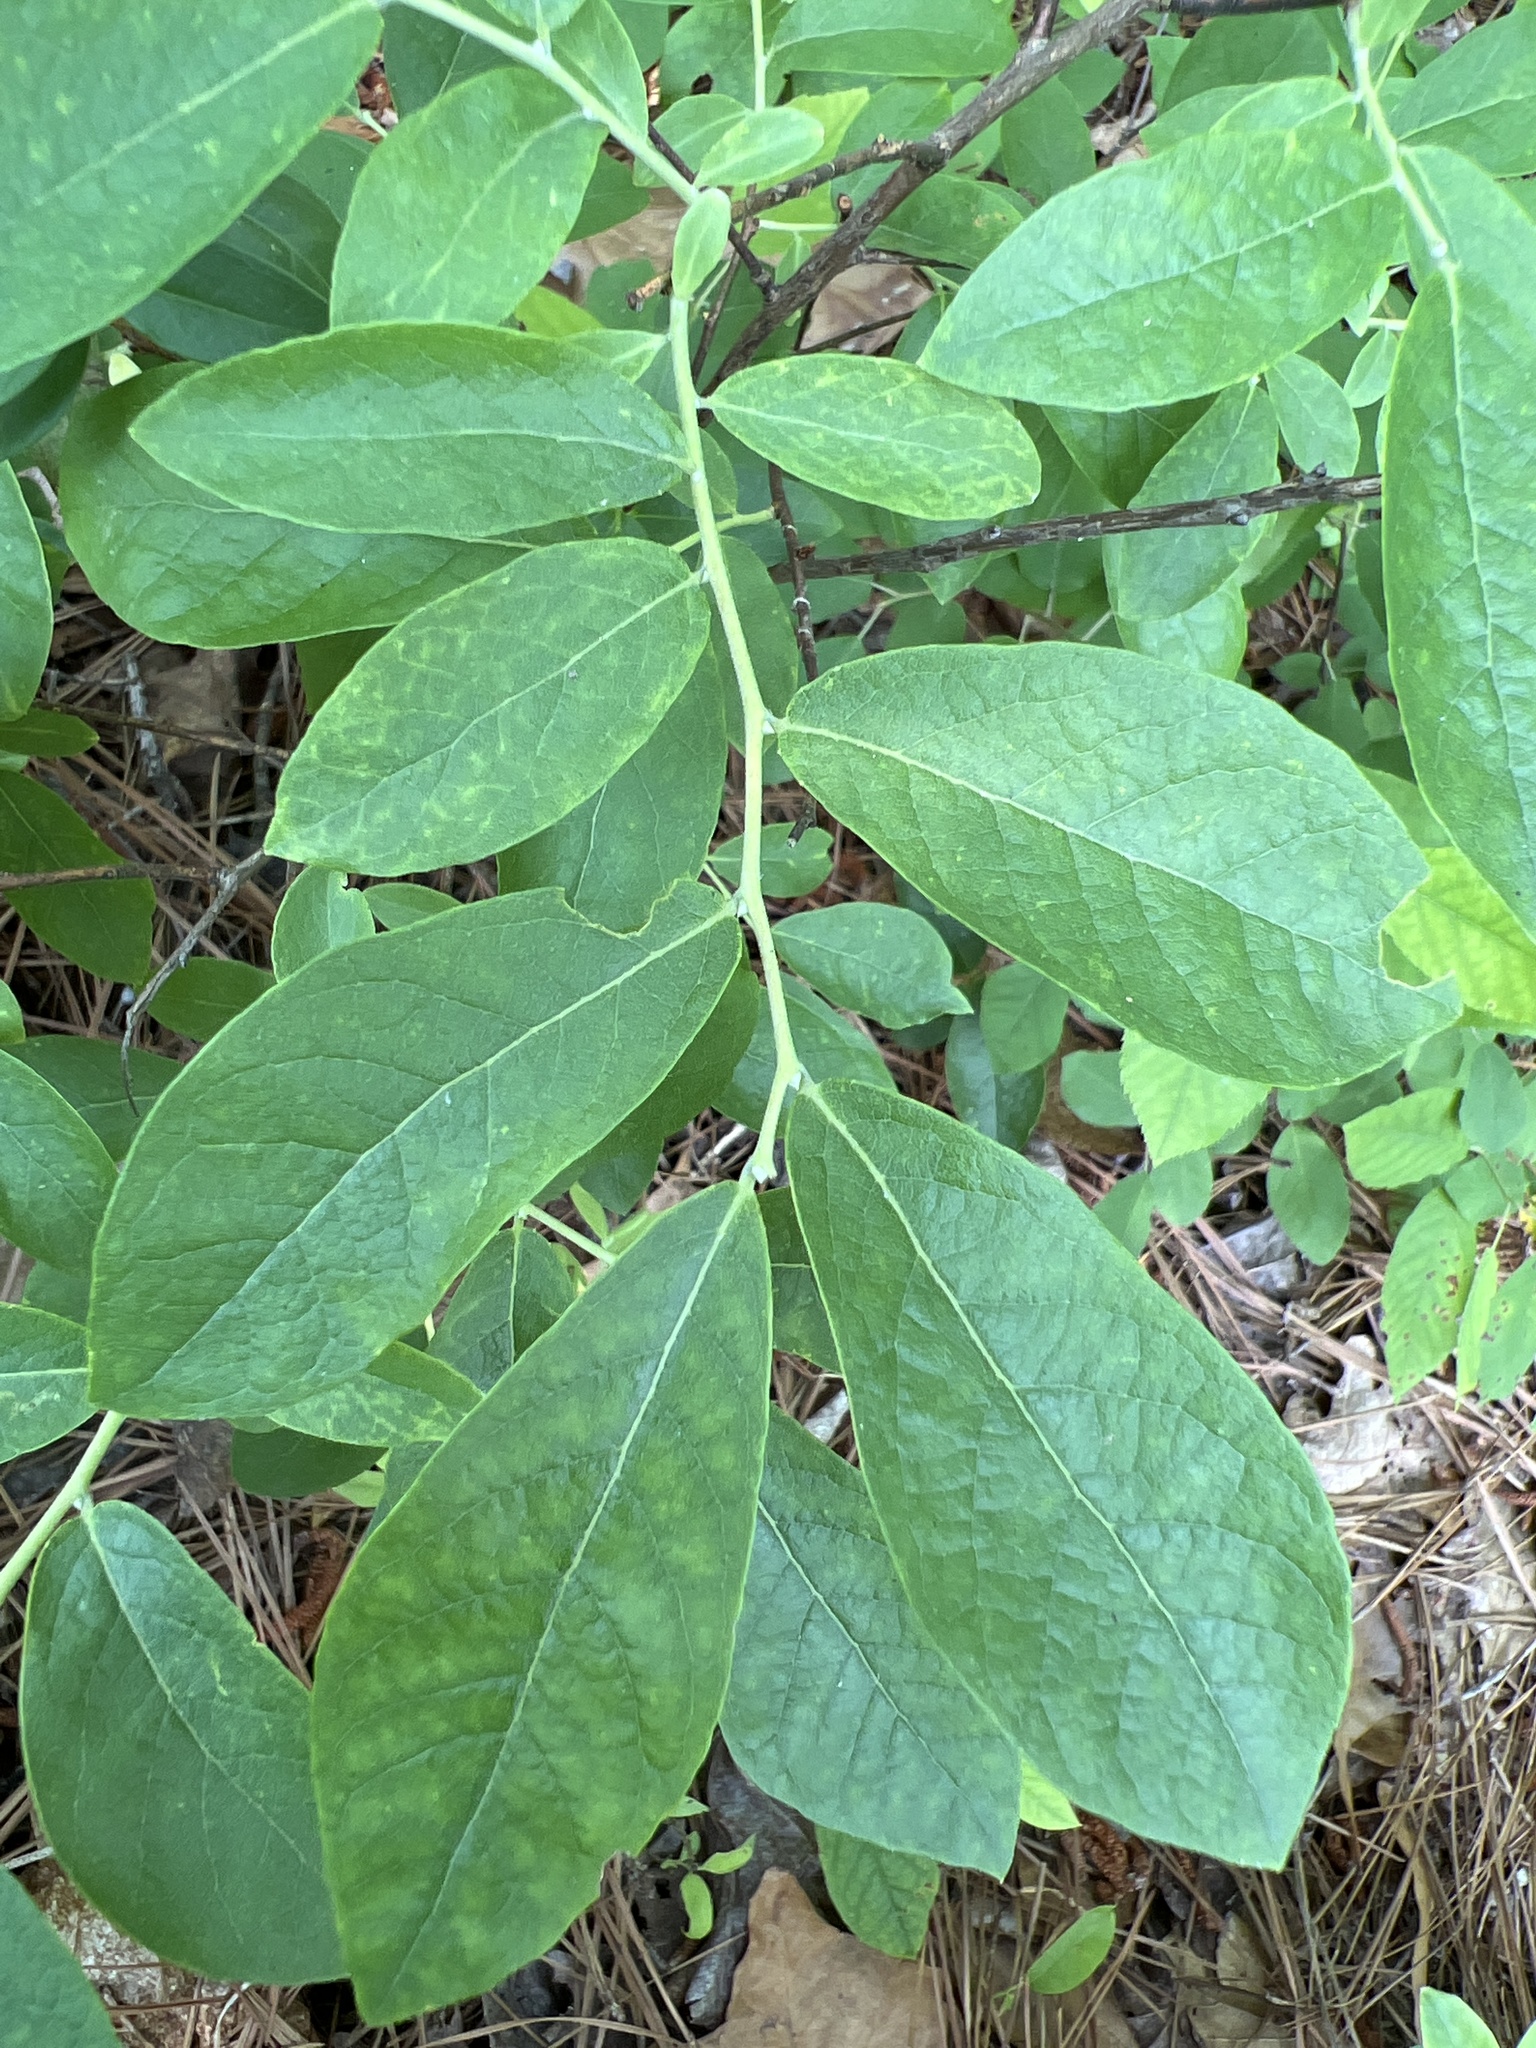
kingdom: Plantae
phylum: Tracheophyta
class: Magnoliopsida
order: Ericales
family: Ericaceae
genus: Vaccinium
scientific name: Vaccinium stamineum
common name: Deerberry
